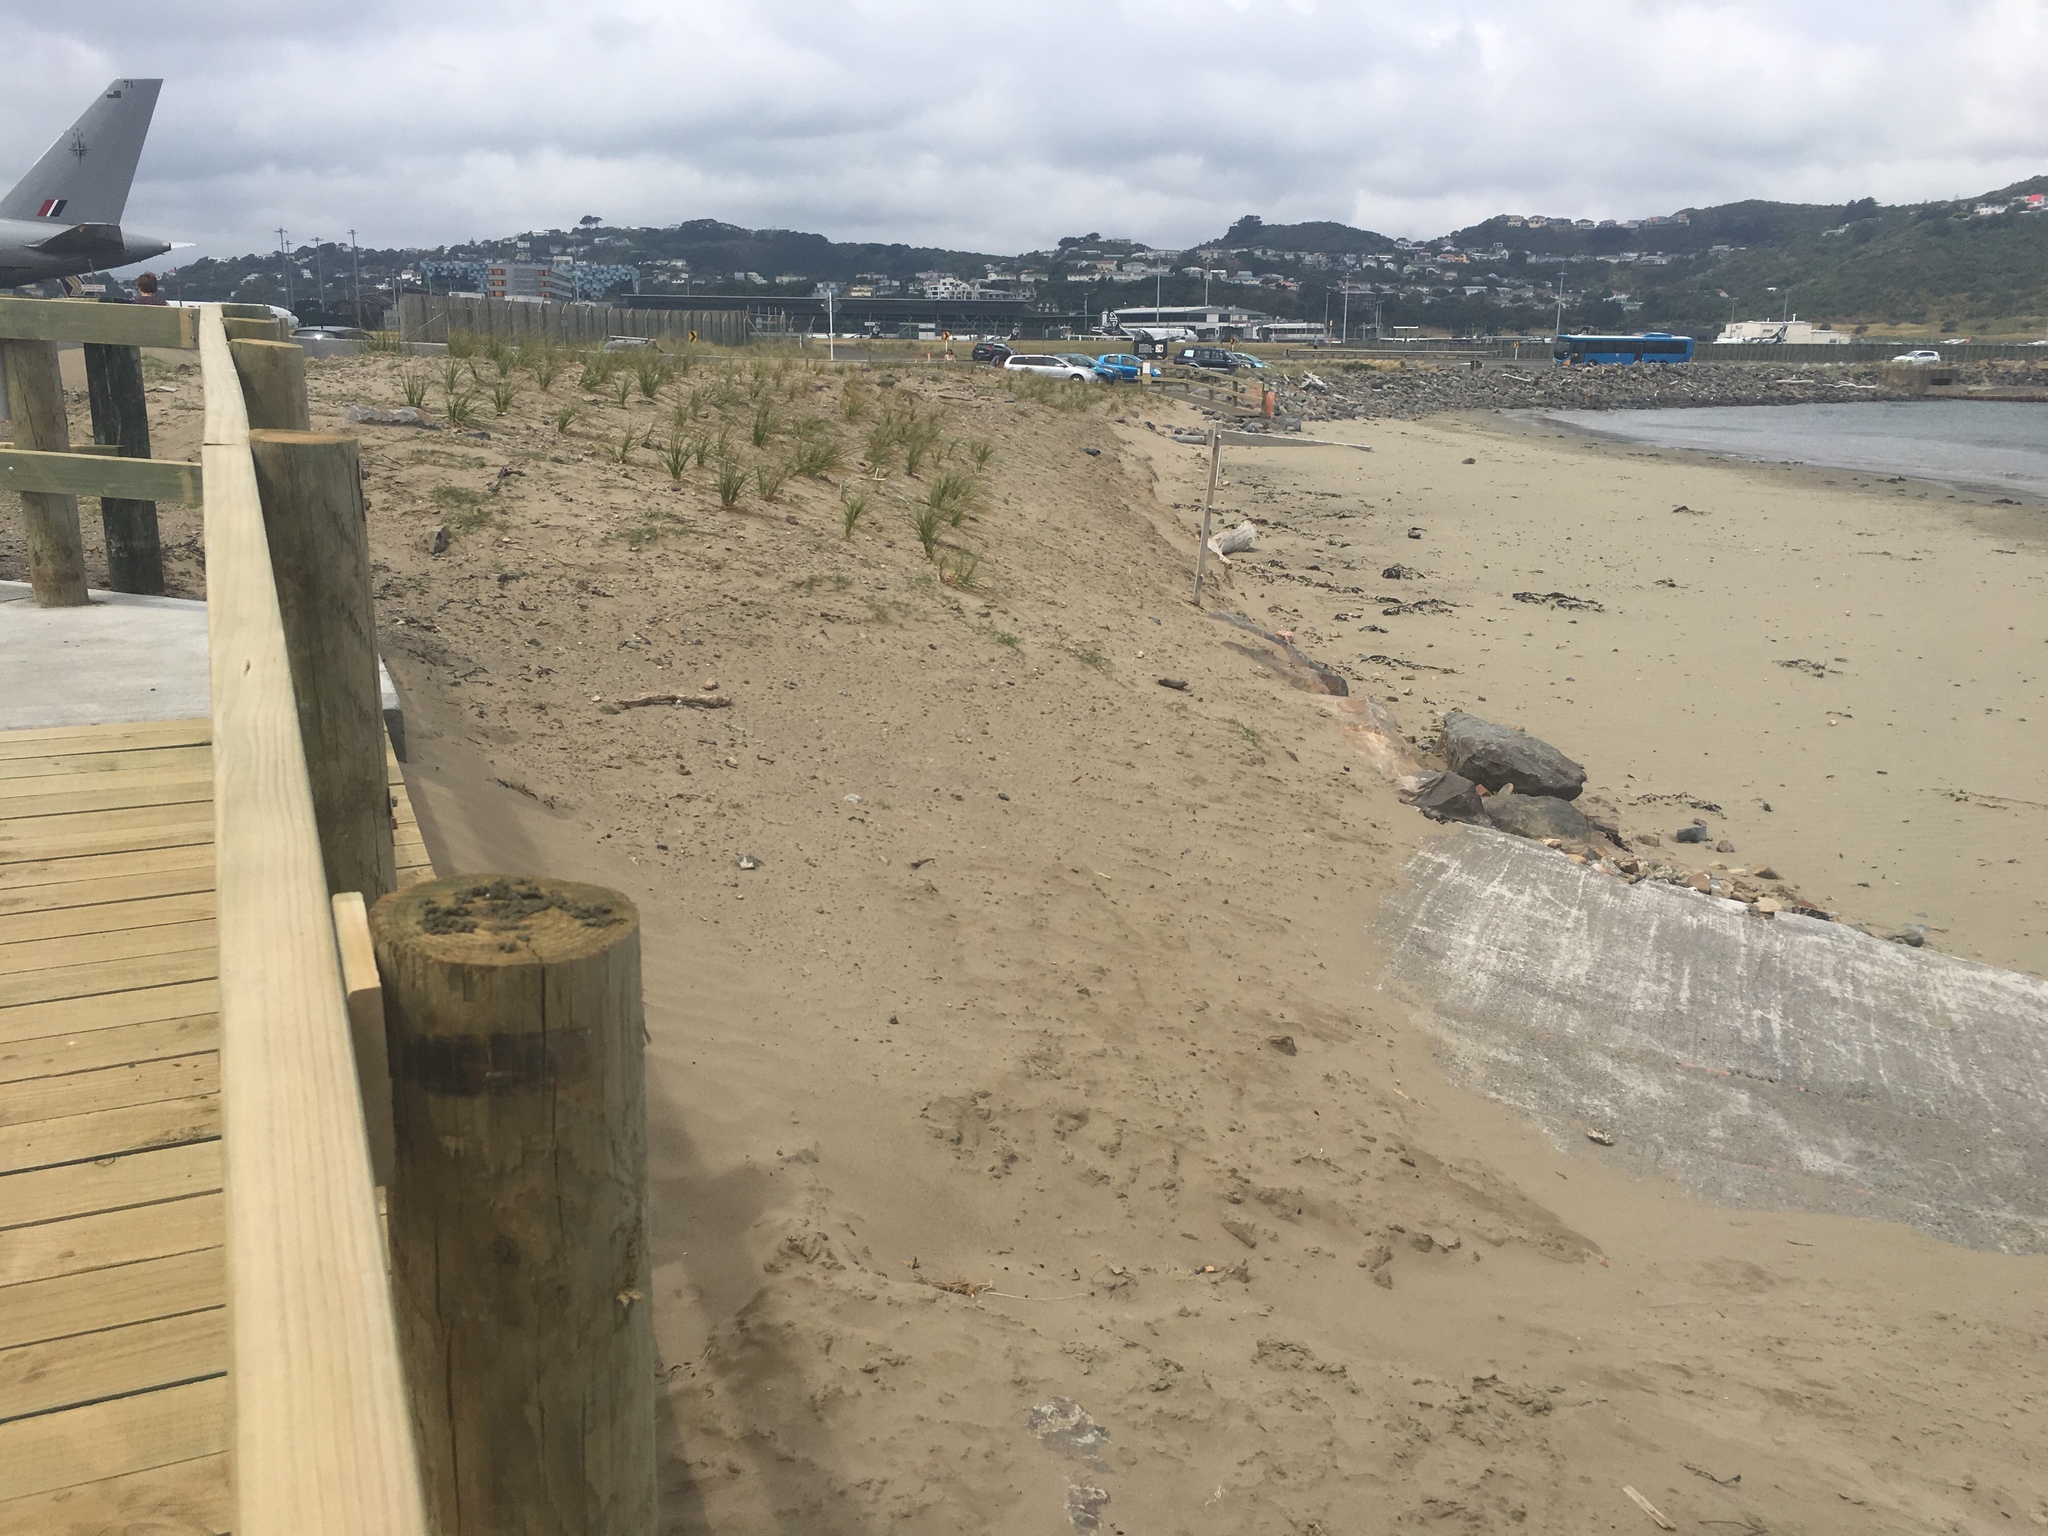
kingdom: Plantae
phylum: Tracheophyta
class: Liliopsida
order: Poales
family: Cyperaceae
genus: Ficinia
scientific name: Ficinia spiralis
